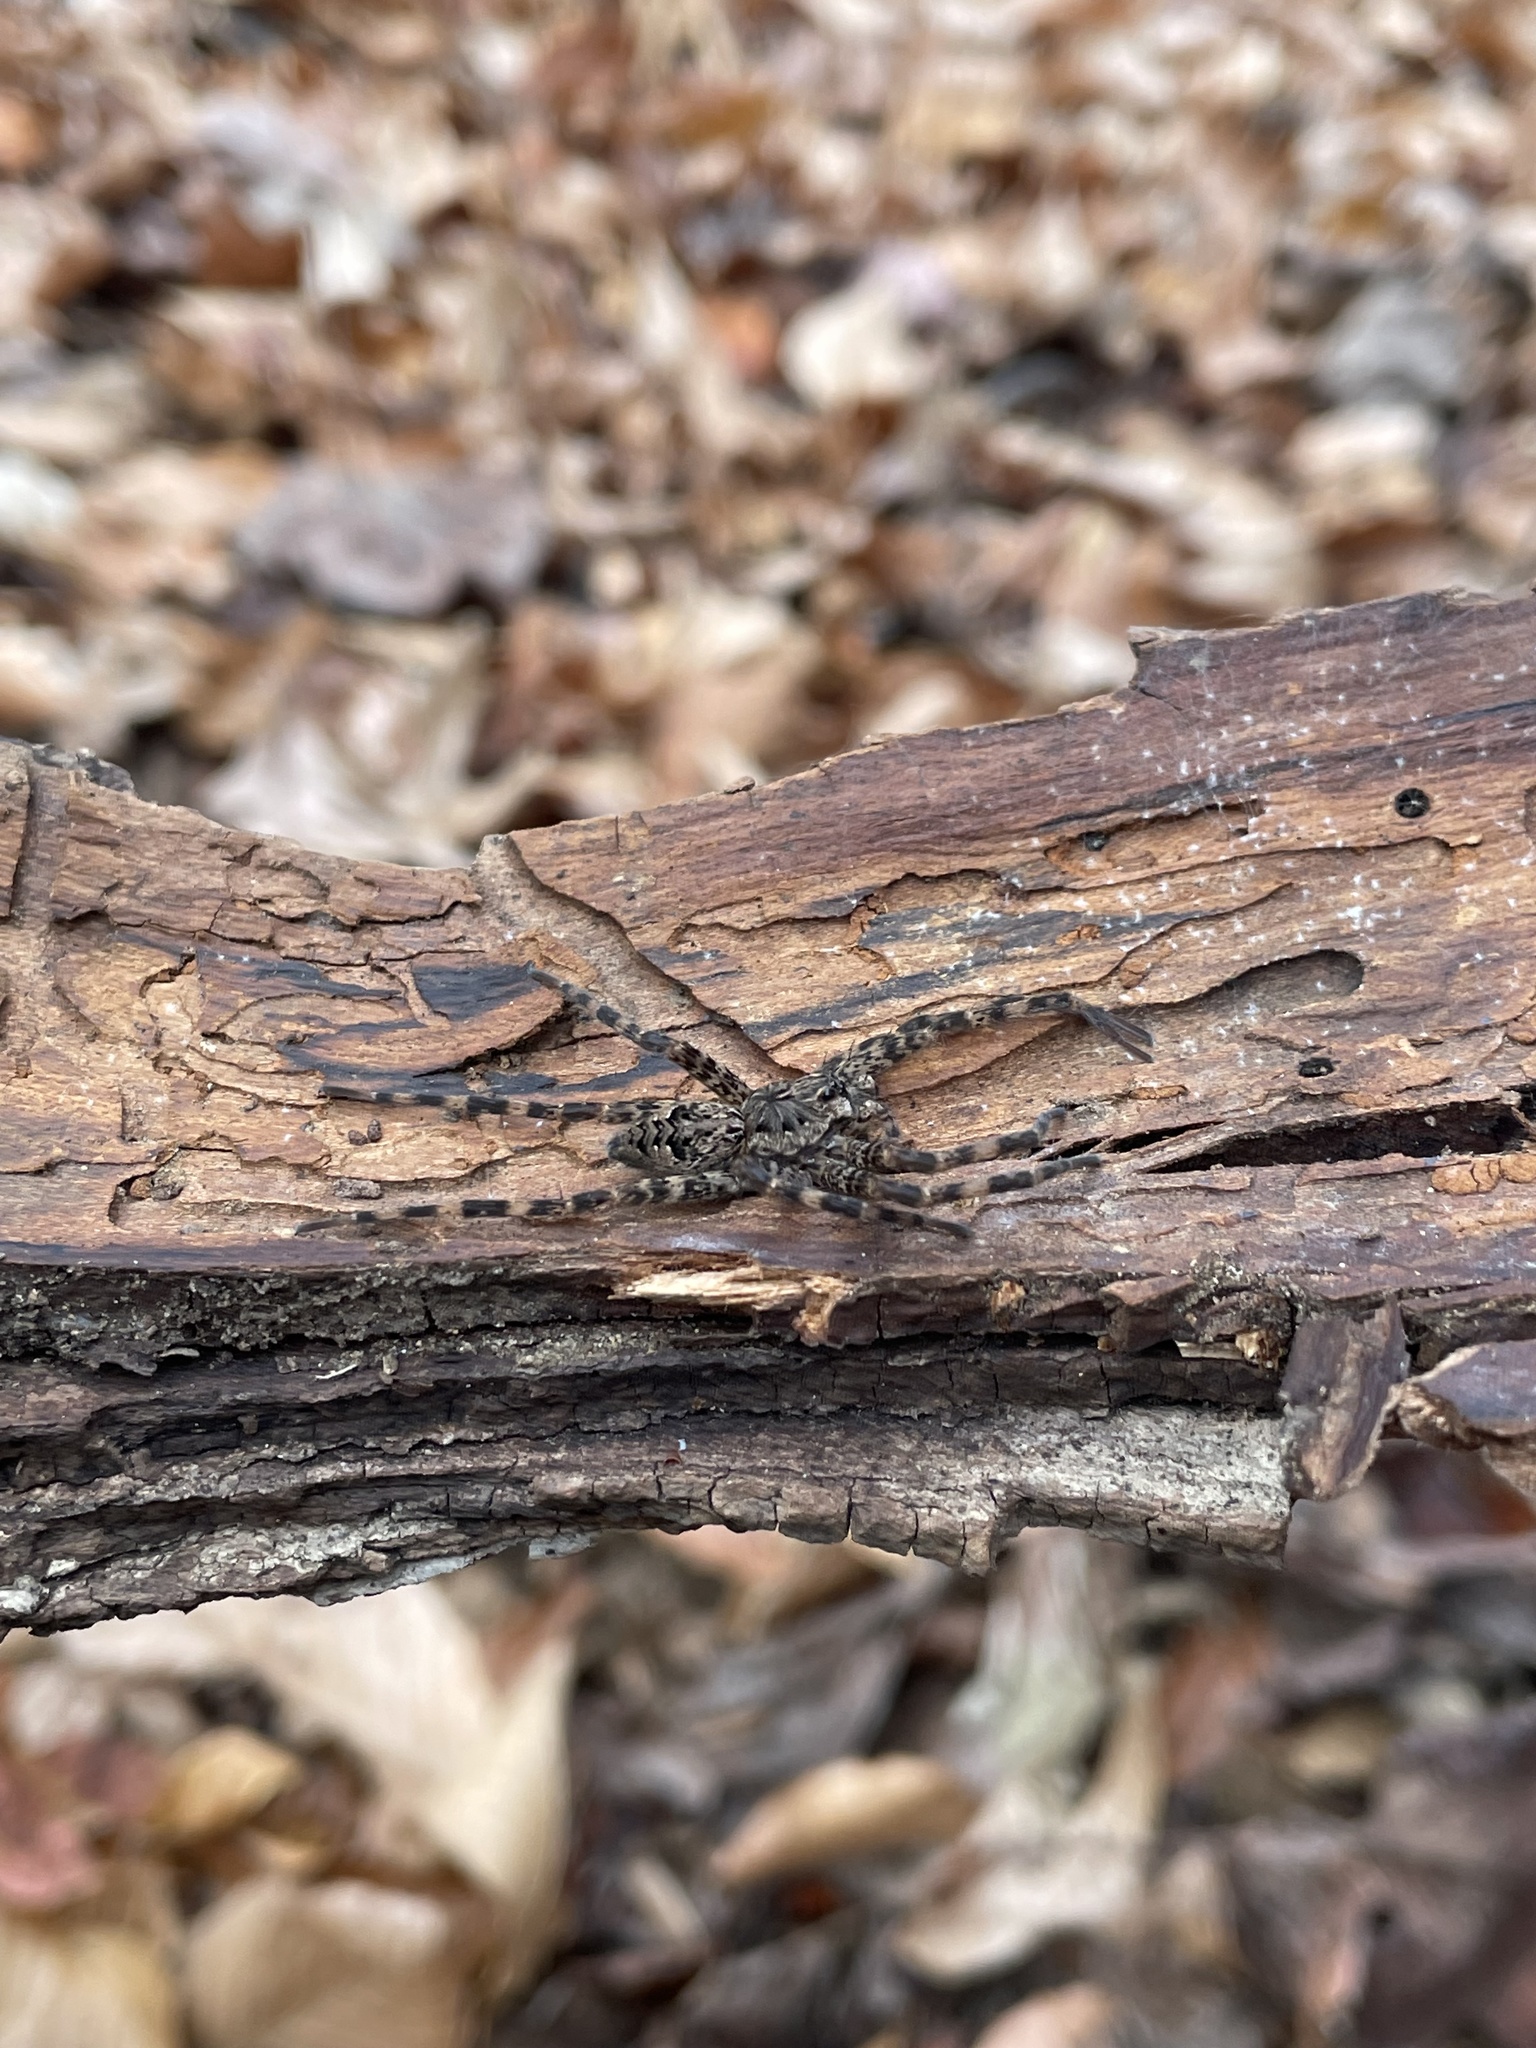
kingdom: Animalia
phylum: Arthropoda
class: Arachnida
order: Araneae
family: Pisauridae
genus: Dolomedes
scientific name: Dolomedes tenebrosus
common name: Dark fishing spider
